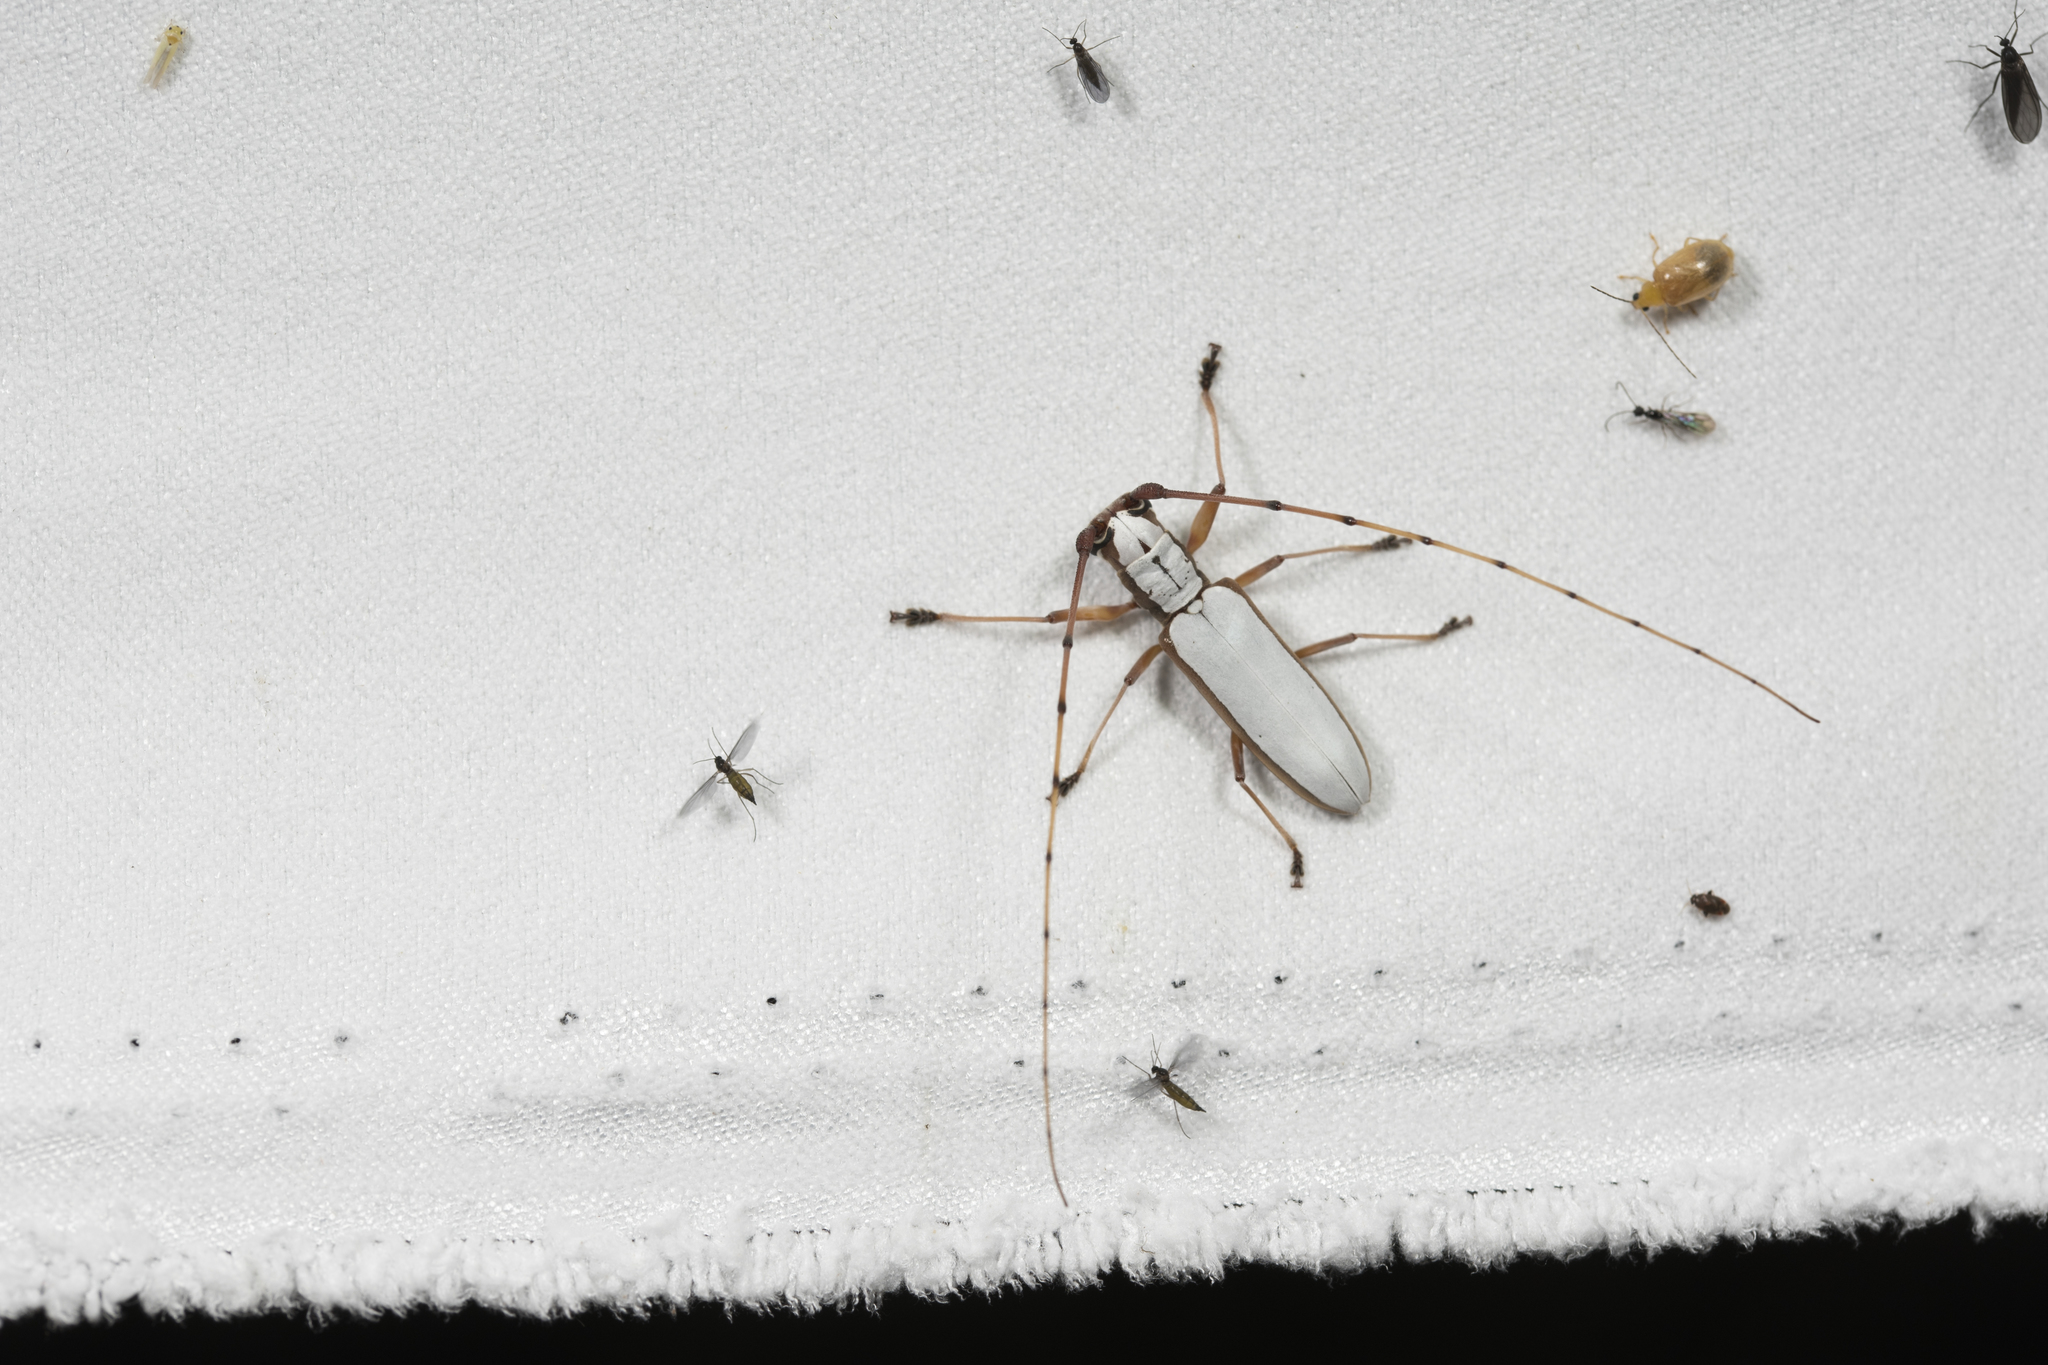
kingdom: Animalia
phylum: Arthropoda
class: Insecta
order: Coleoptera
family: Cerambycidae
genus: Olenecamptus
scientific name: Olenecamptus cretaceus
